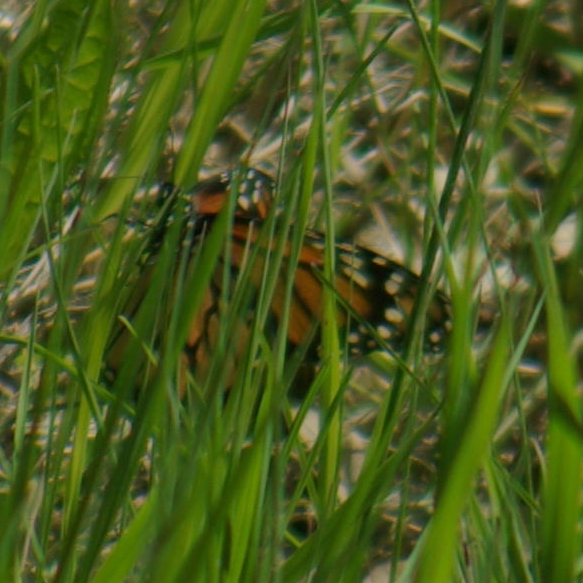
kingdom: Animalia
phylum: Arthropoda
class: Insecta
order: Lepidoptera
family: Nymphalidae
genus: Danaus
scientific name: Danaus plexippus
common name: Monarch
